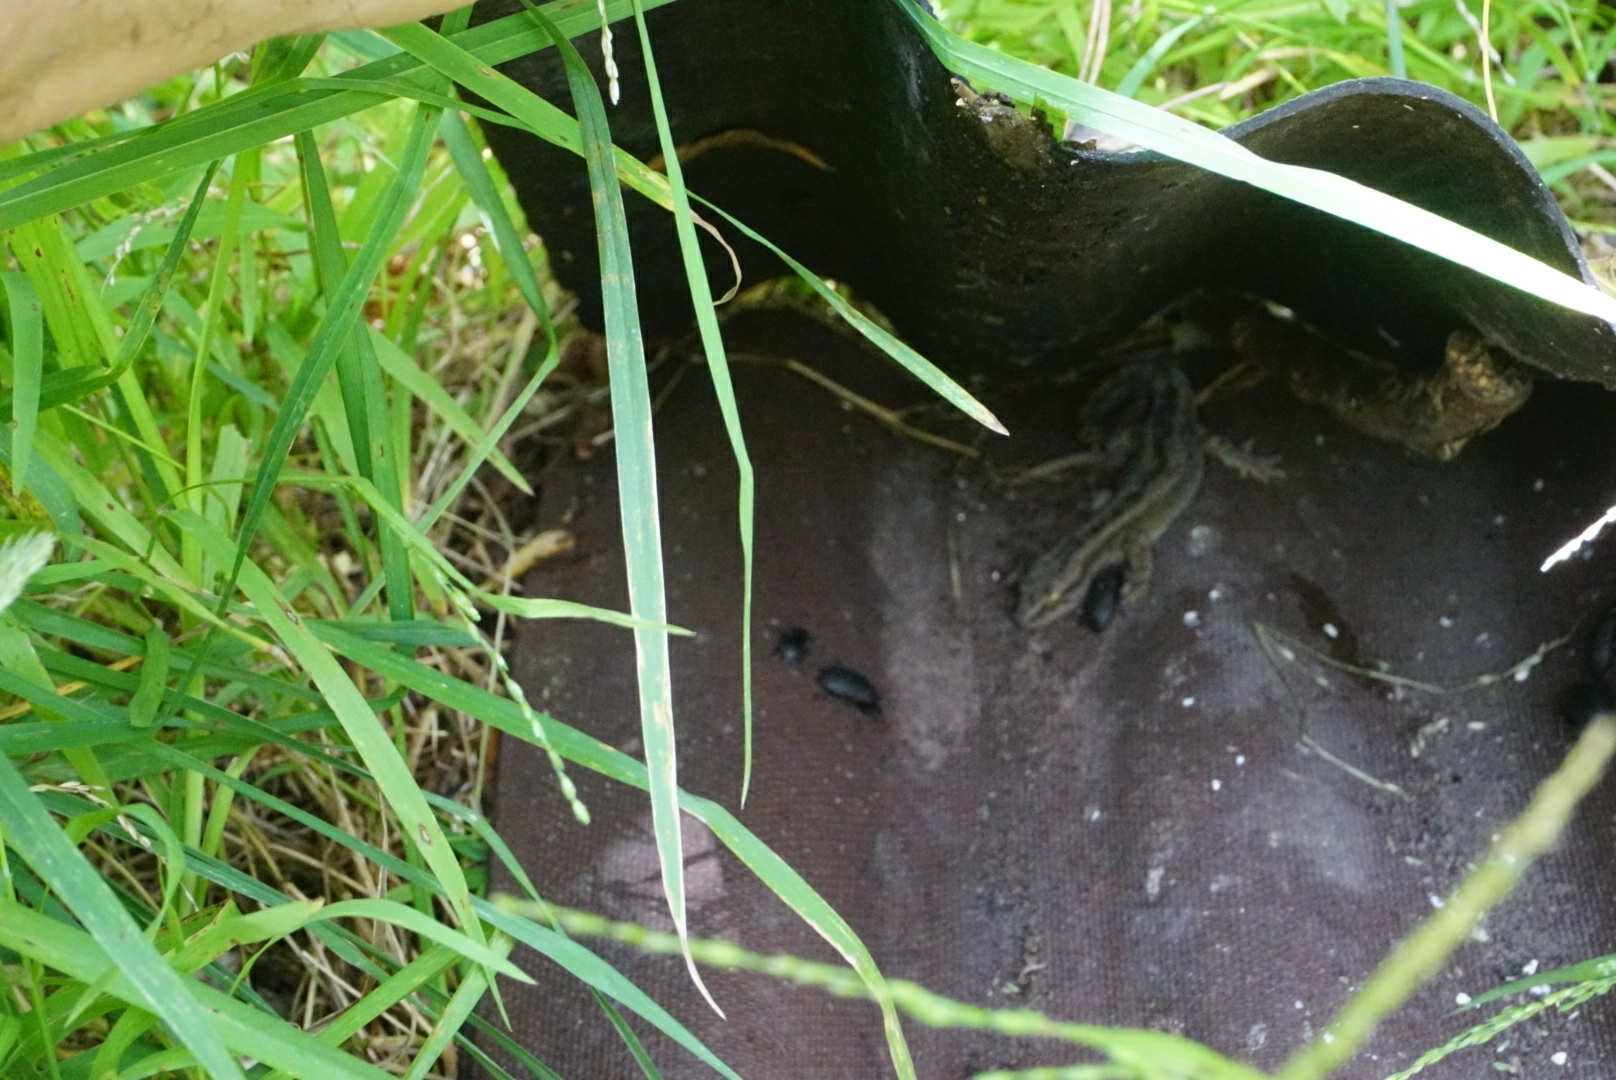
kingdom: Animalia
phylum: Chordata
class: Squamata
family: Diplodactylidae
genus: Woodworthia
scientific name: Woodworthia maculata
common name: Raukawa gecko
